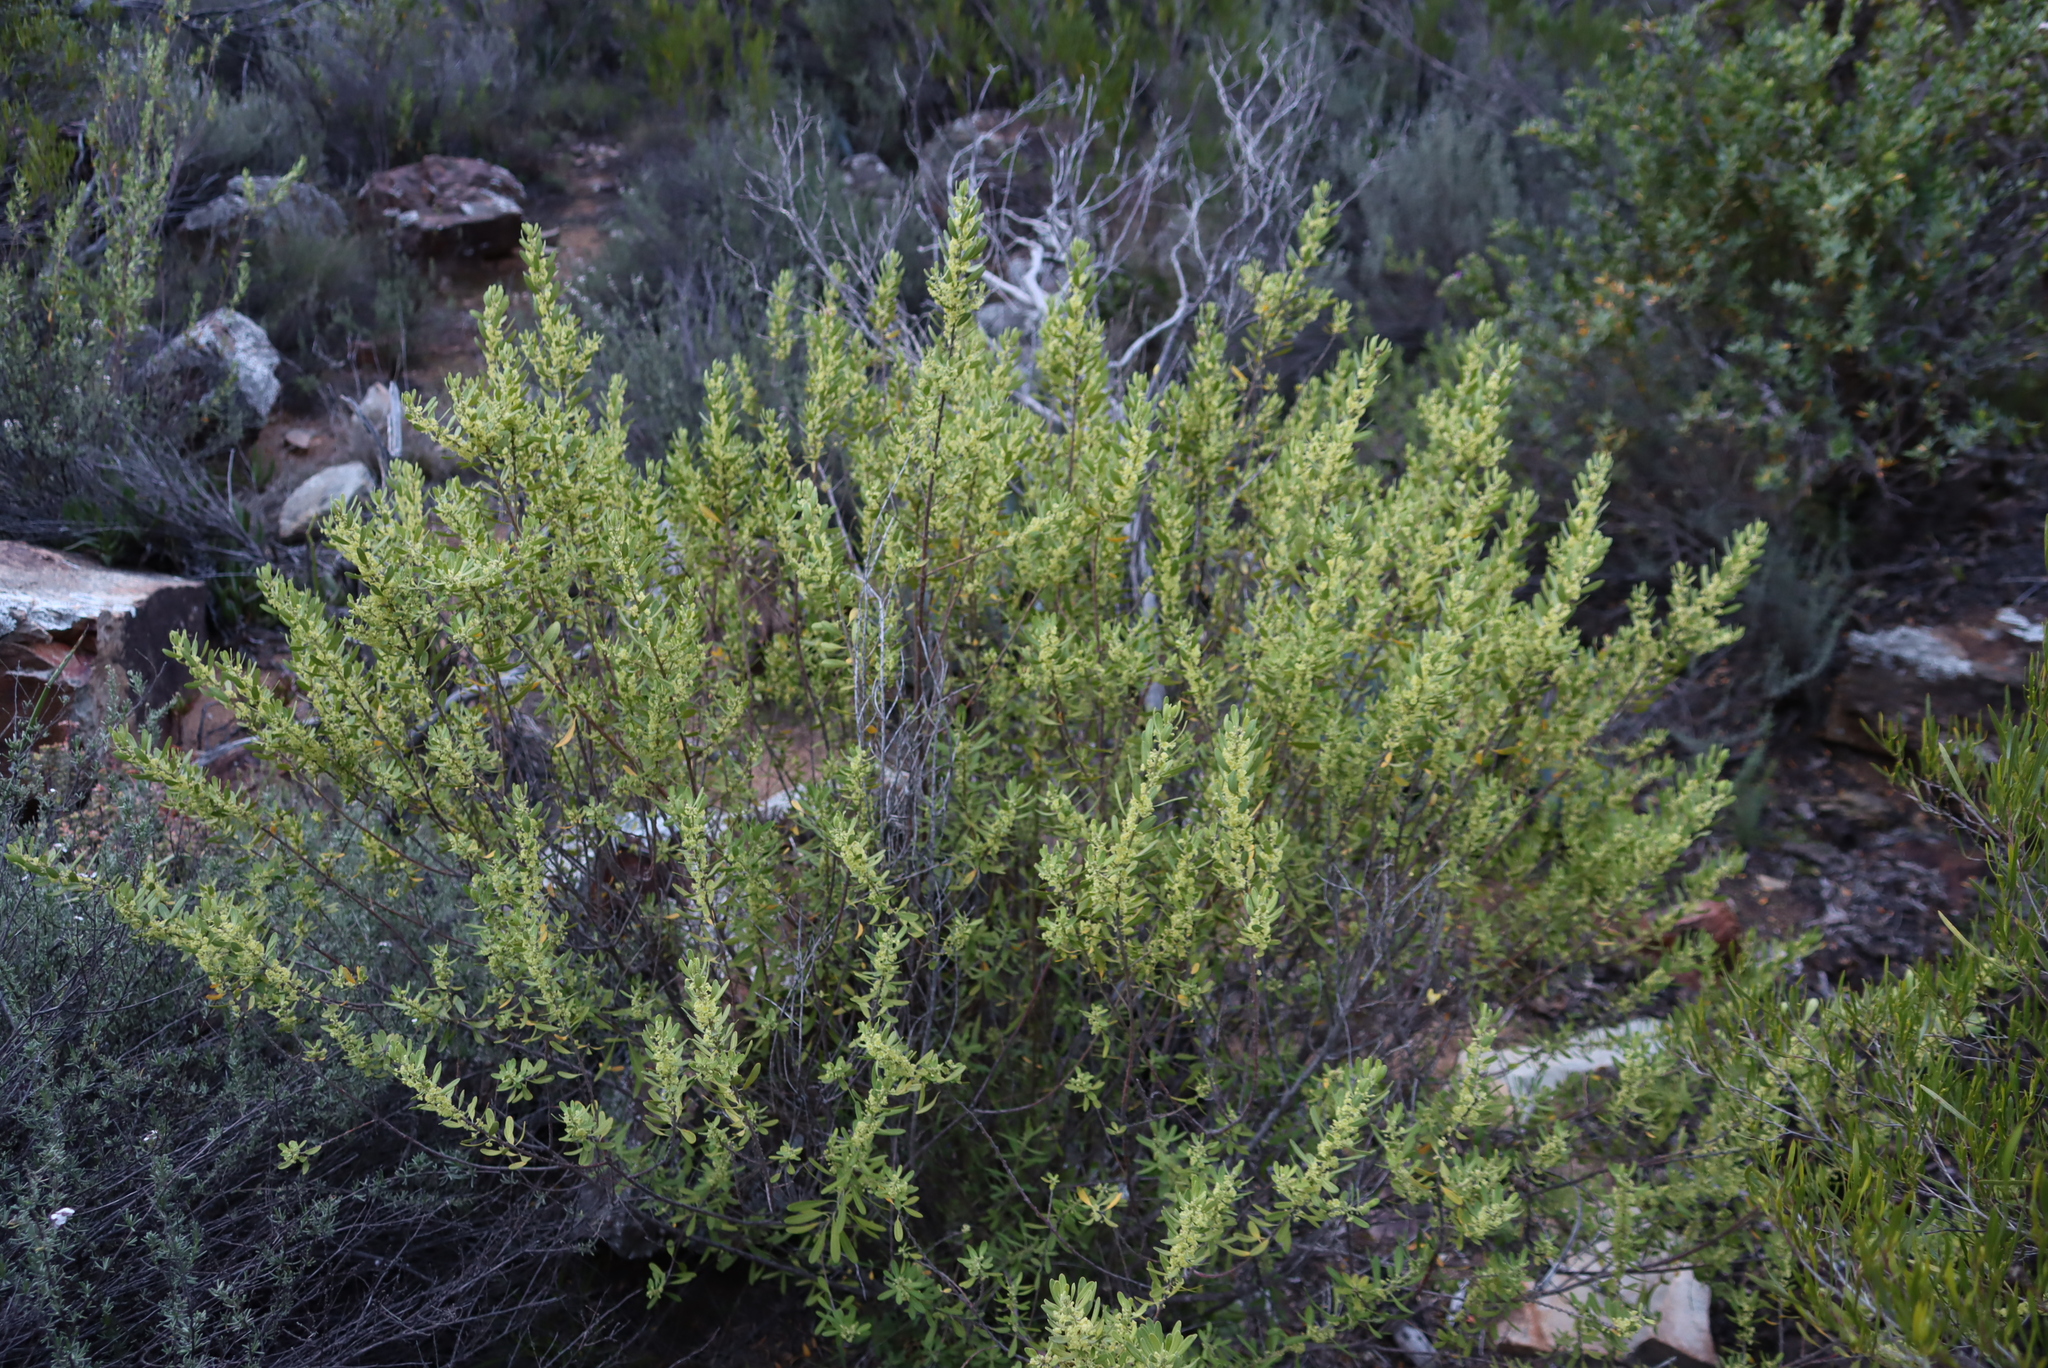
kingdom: Plantae
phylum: Tracheophyta
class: Magnoliopsida
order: Malpighiales
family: Peraceae
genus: Clutia
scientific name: Clutia daphnoides
